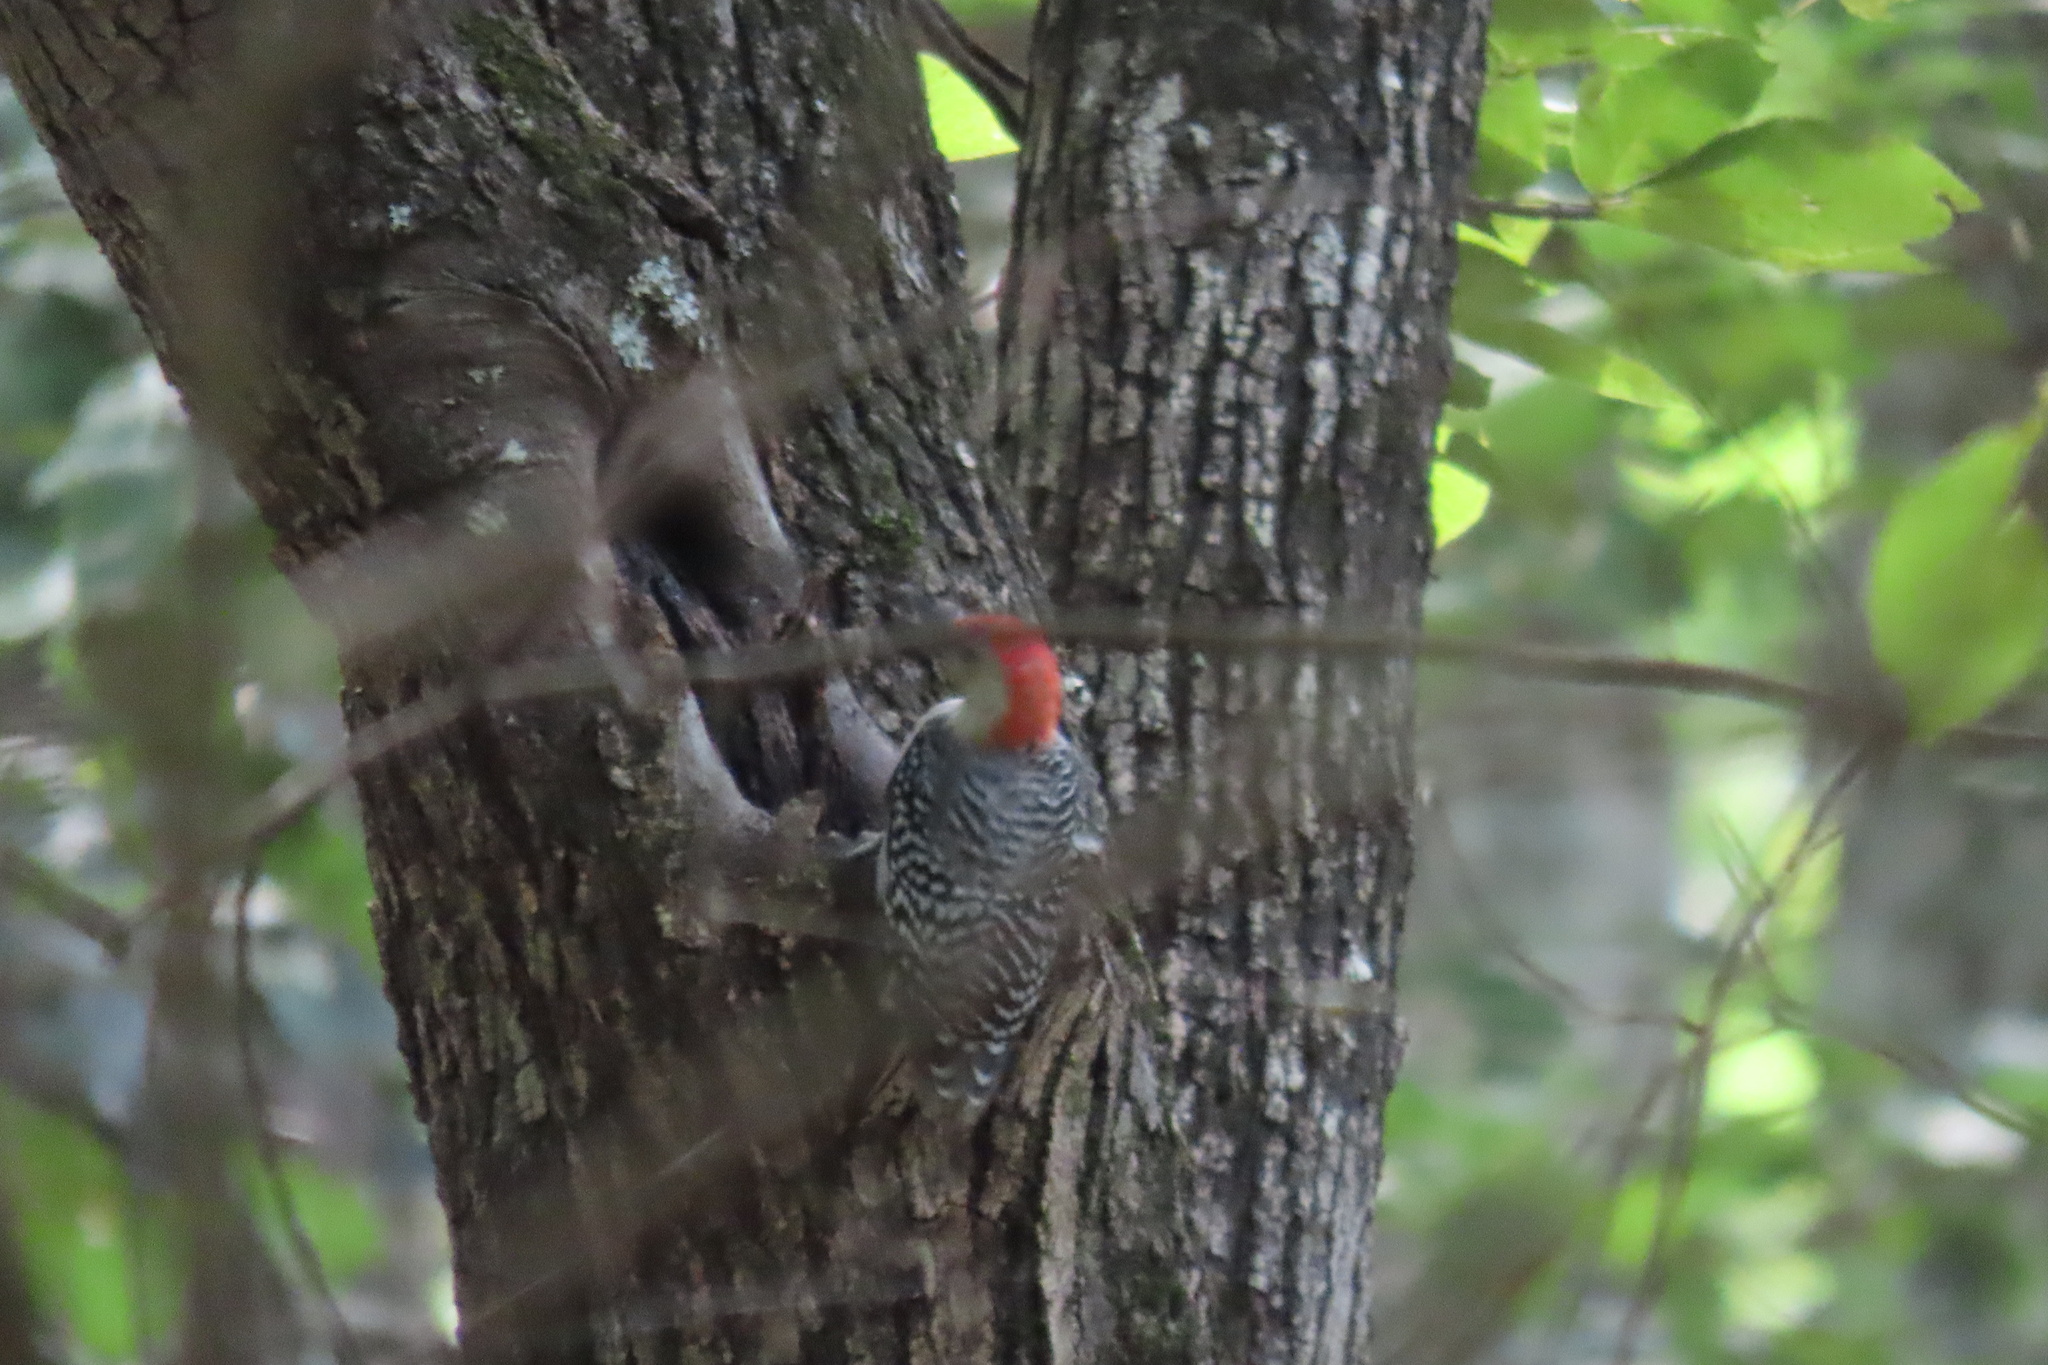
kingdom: Animalia
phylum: Chordata
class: Aves
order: Piciformes
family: Picidae
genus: Melanerpes
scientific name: Melanerpes carolinus
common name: Red-bellied woodpecker
